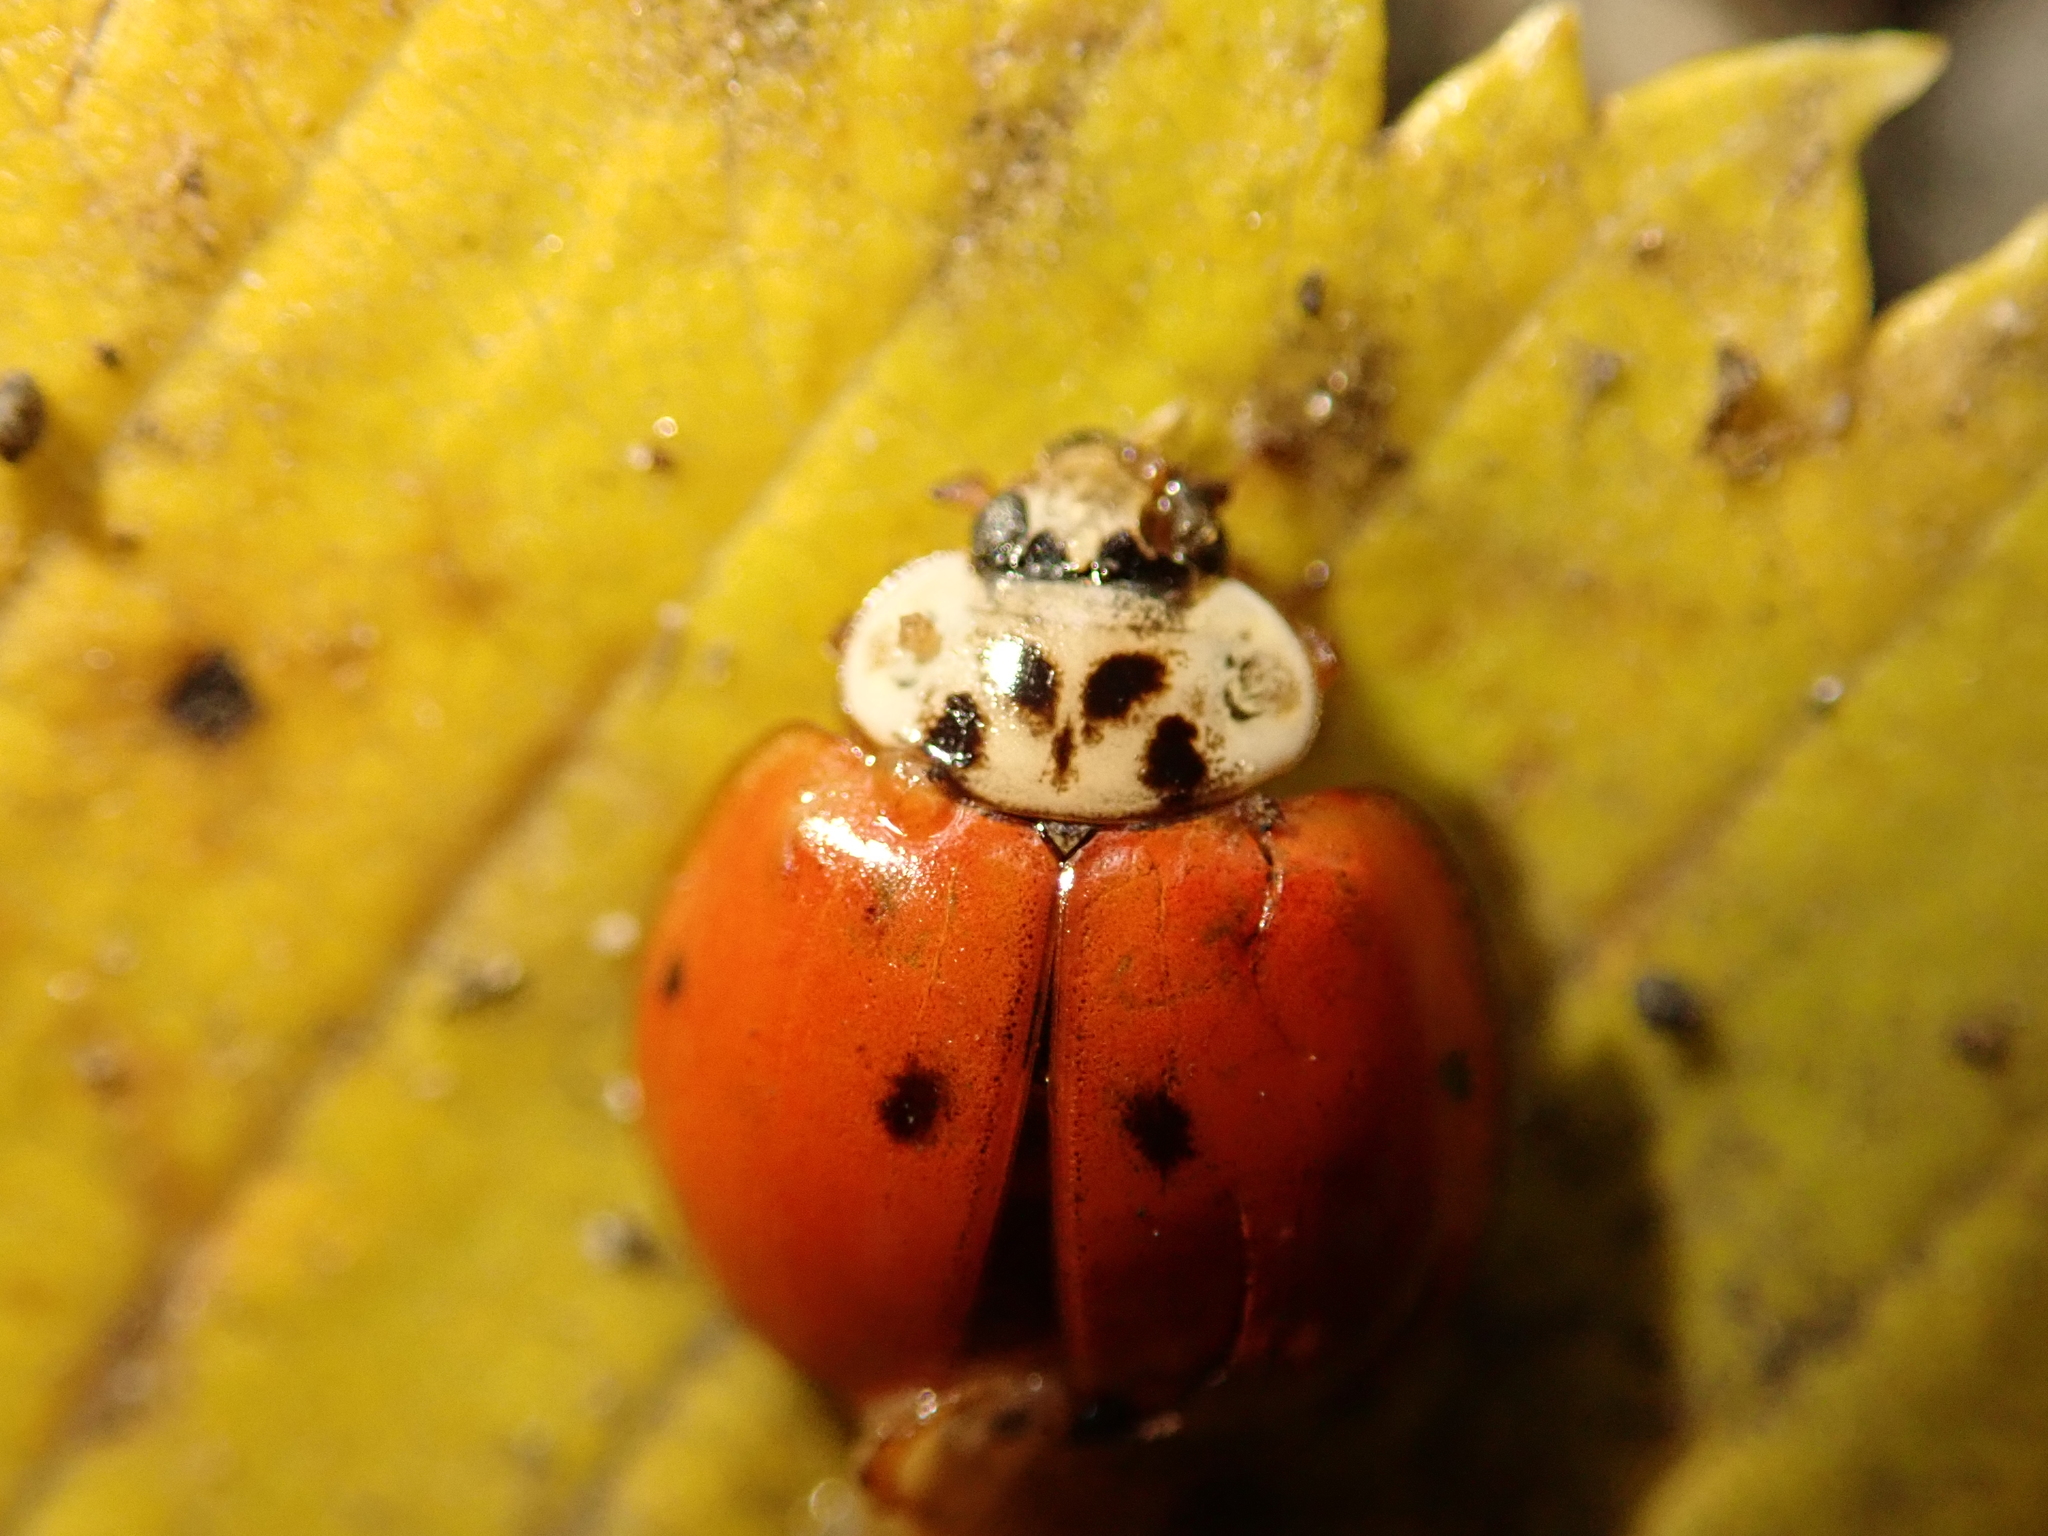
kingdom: Animalia
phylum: Arthropoda
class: Insecta
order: Coleoptera
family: Coccinellidae
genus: Harmonia
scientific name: Harmonia axyridis
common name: Harlequin ladybird
